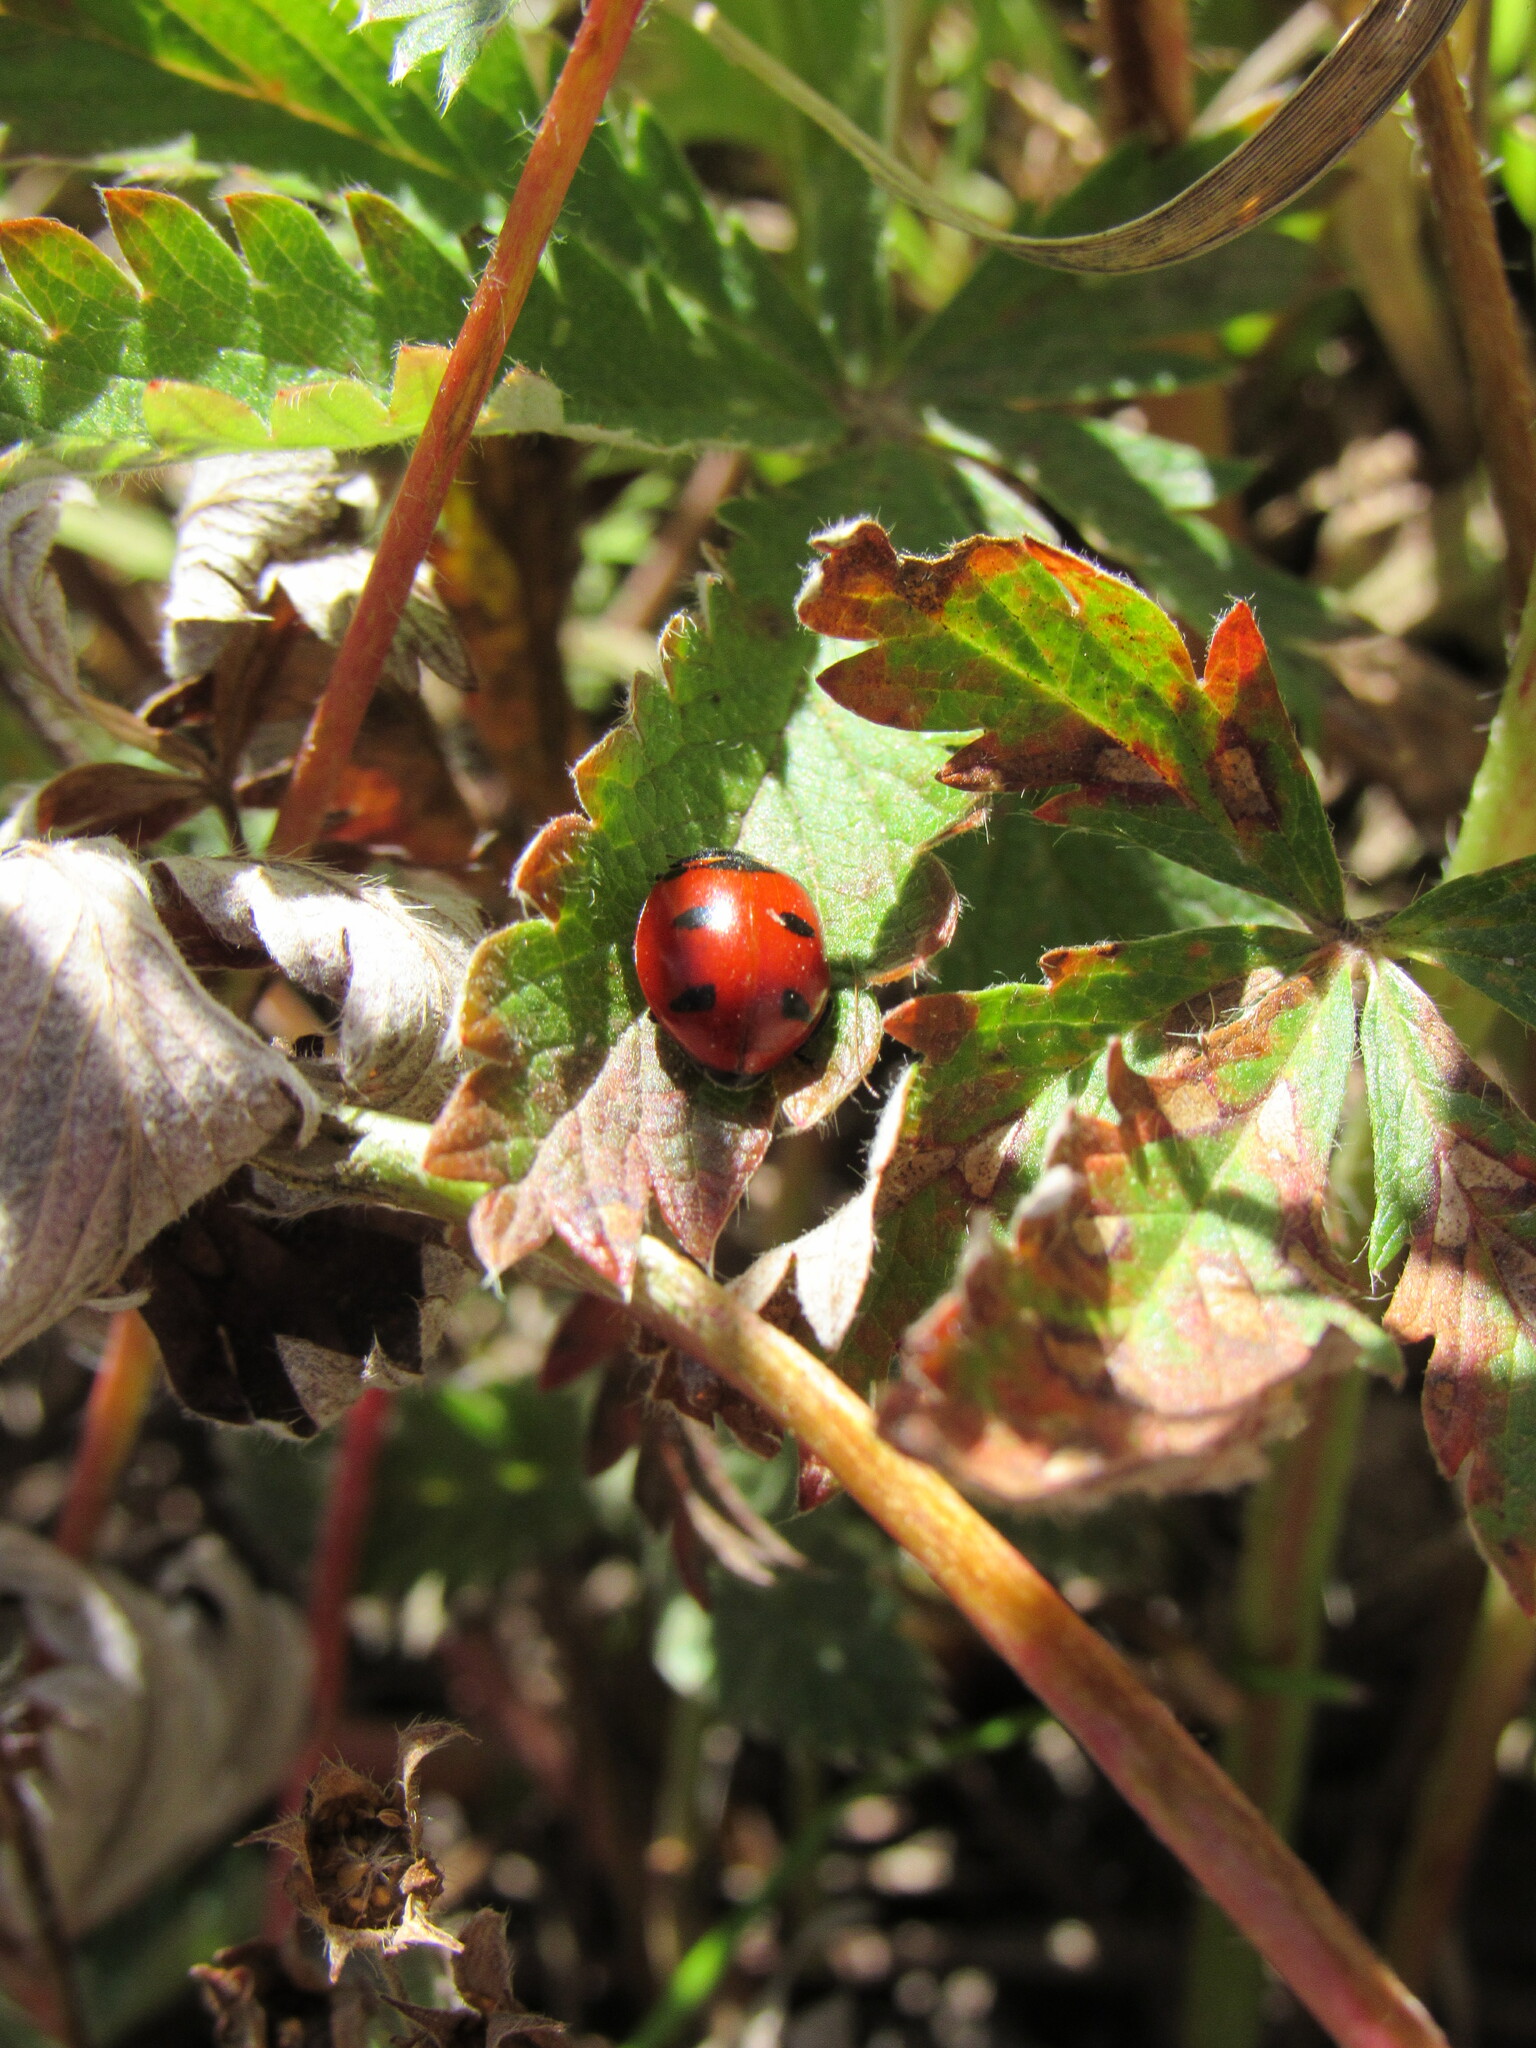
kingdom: Animalia
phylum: Arthropoda
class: Insecta
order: Coleoptera
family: Coccinellidae
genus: Coccinella
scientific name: Coccinella transversoguttata
